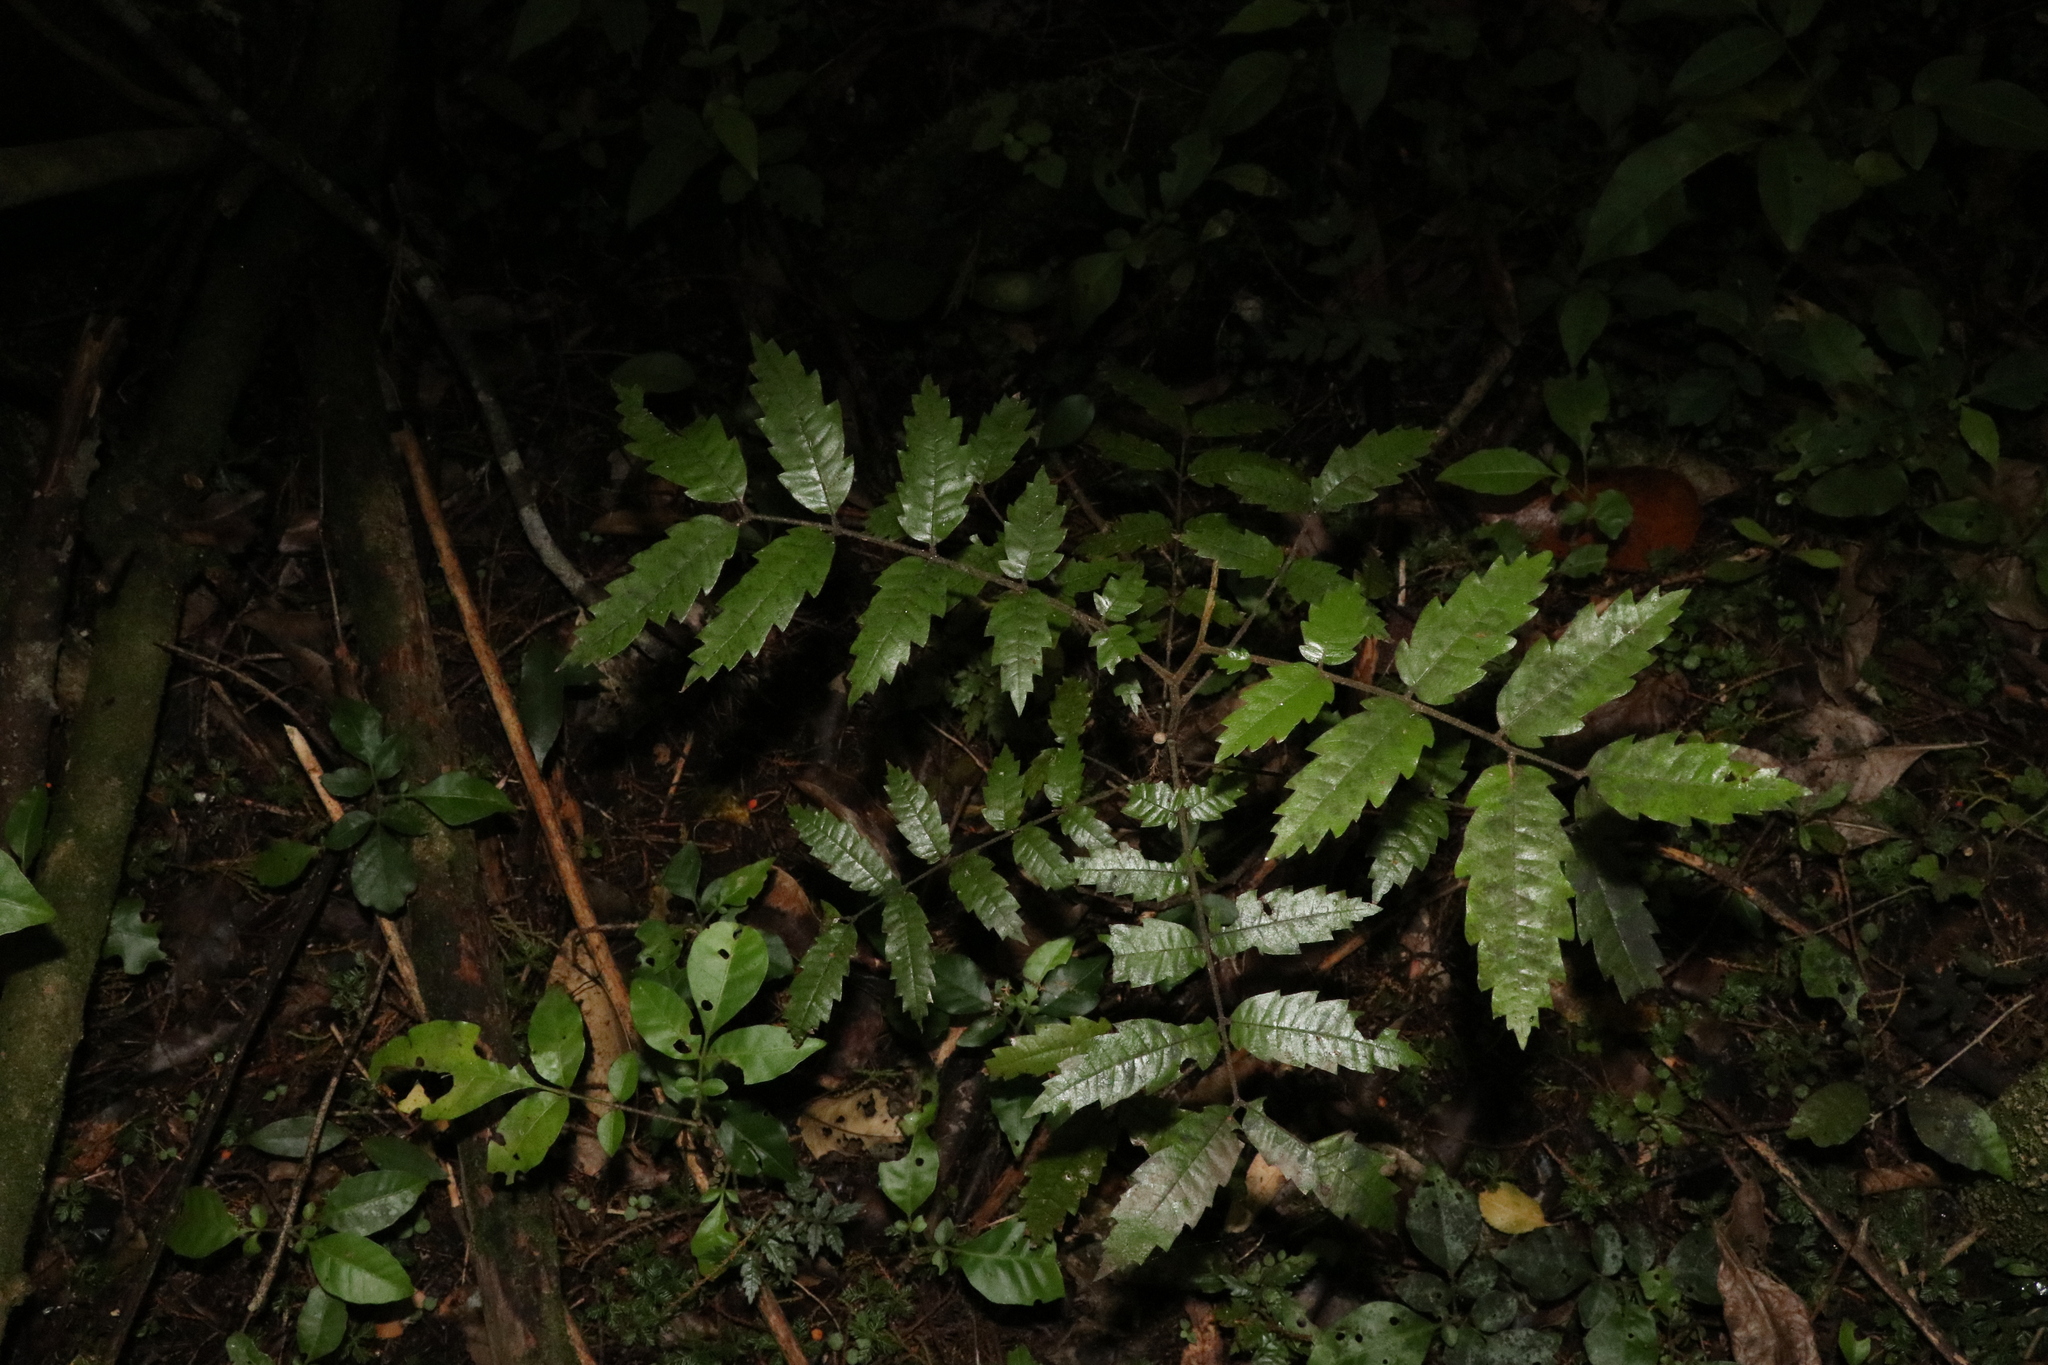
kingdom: Plantae
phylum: Tracheophyta
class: Magnoliopsida
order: Sapindales
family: Sapindaceae
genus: Alectryon
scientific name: Alectryon excelsus
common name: Three kings titoki
